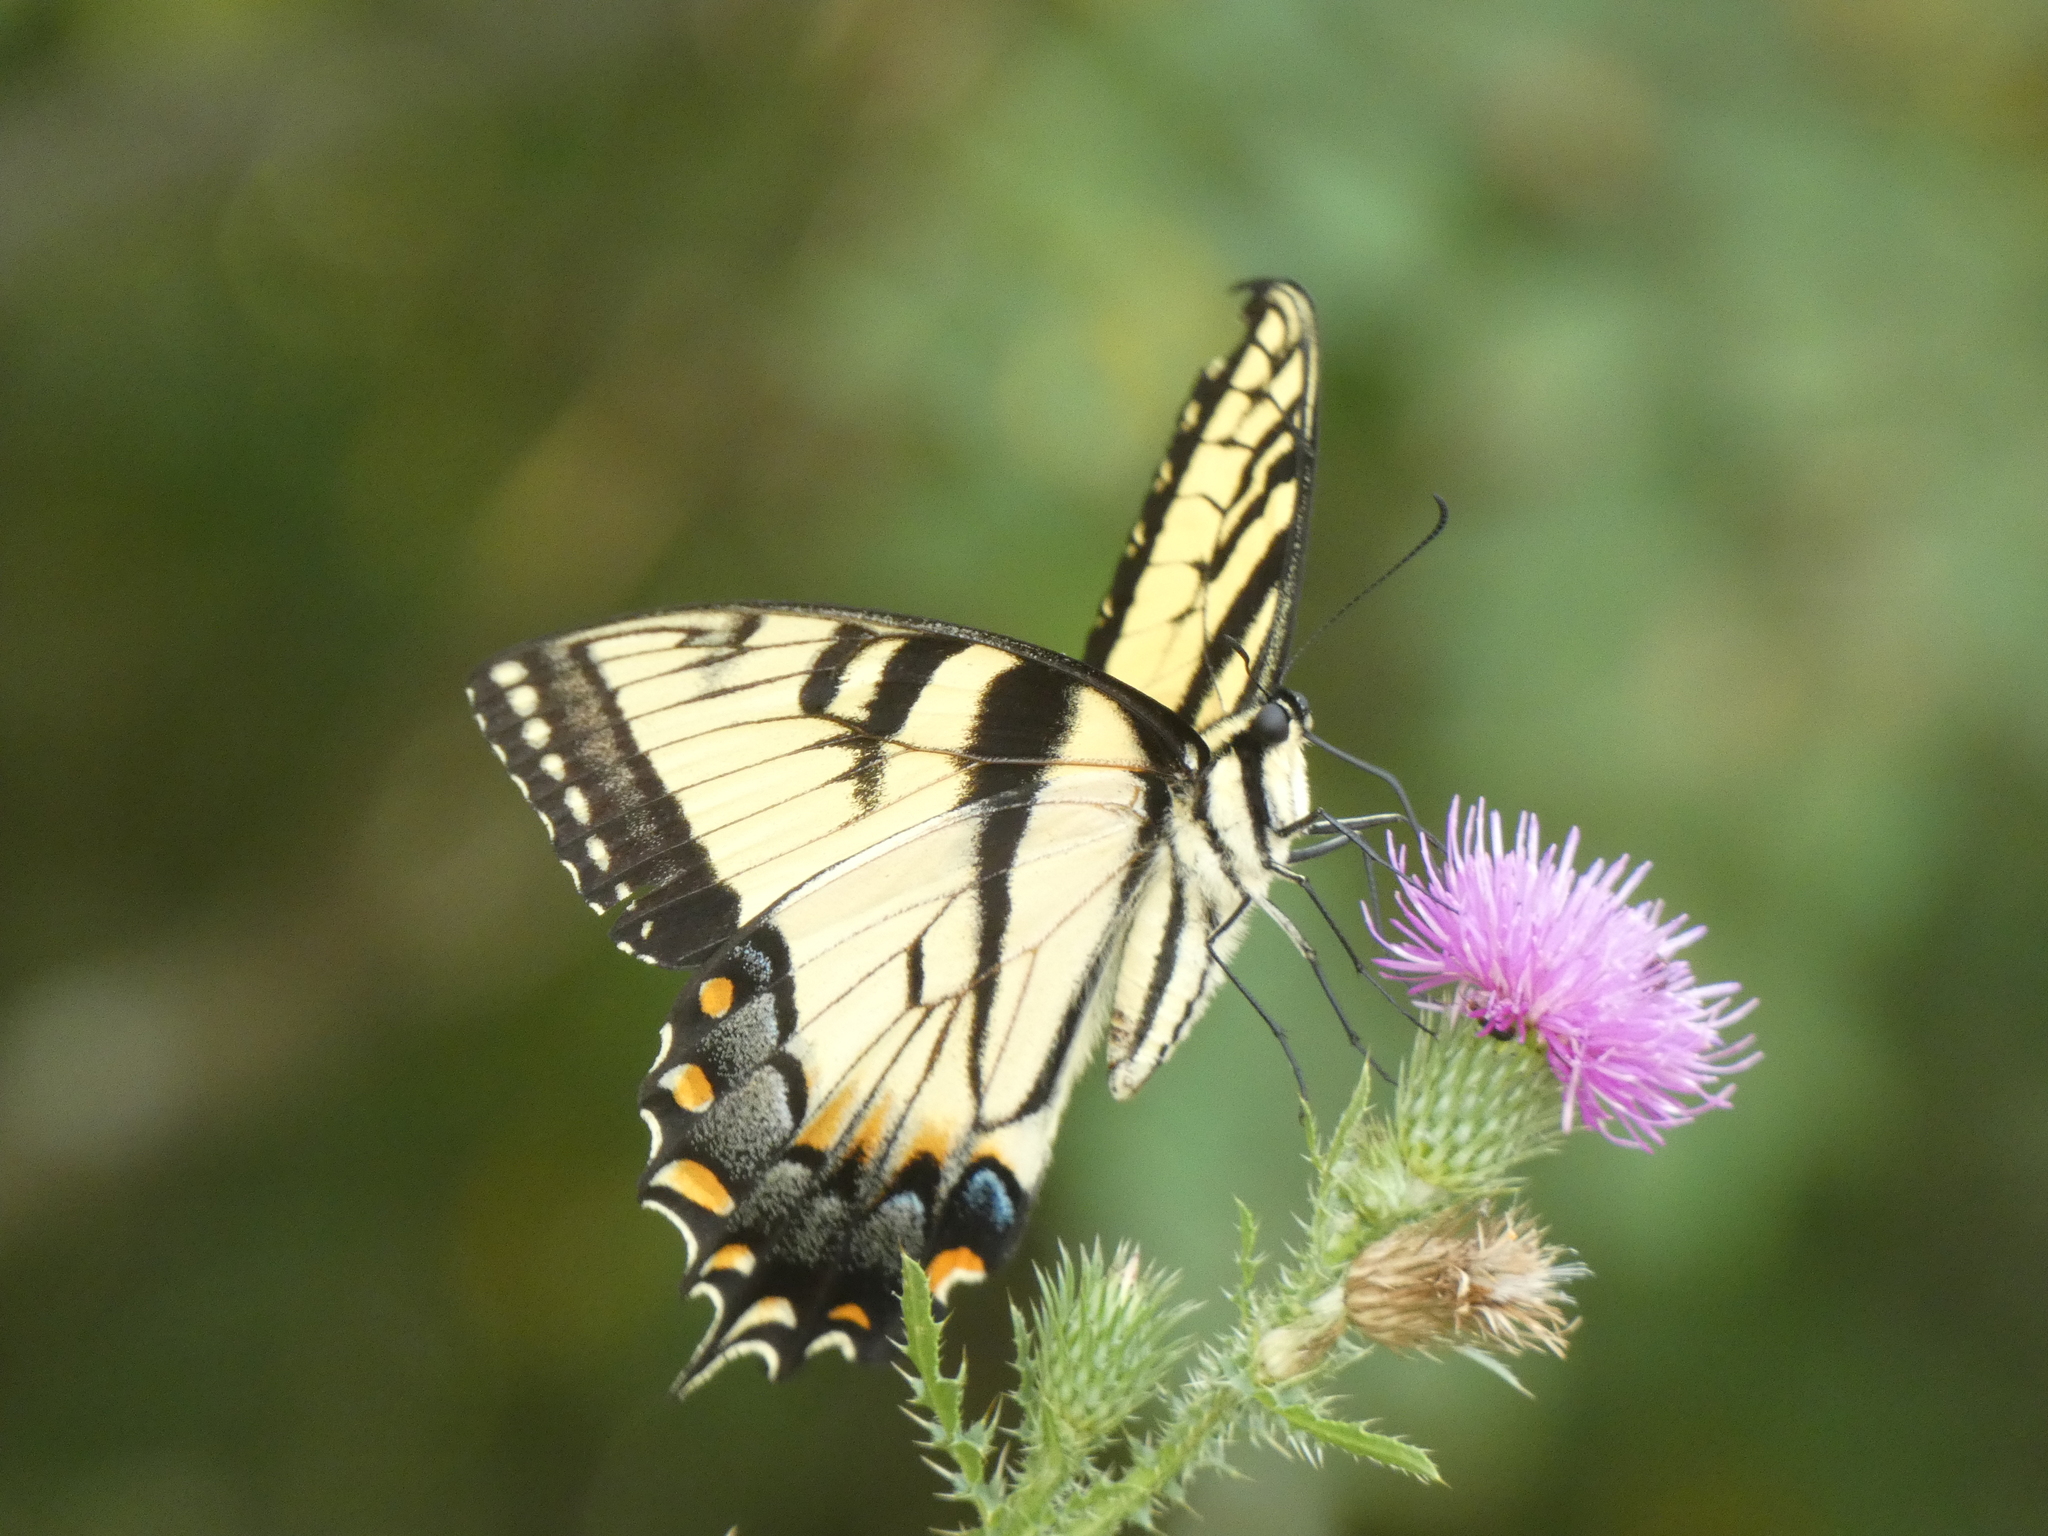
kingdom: Animalia
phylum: Arthropoda
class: Insecta
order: Lepidoptera
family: Papilionidae
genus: Papilio
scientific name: Papilio glaucus
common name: Tiger swallowtail
